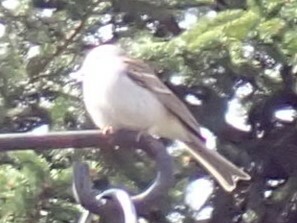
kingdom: Animalia
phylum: Chordata
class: Aves
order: Passeriformes
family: Passerellidae
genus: Spizella
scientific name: Spizella passerina
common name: Chipping sparrow
